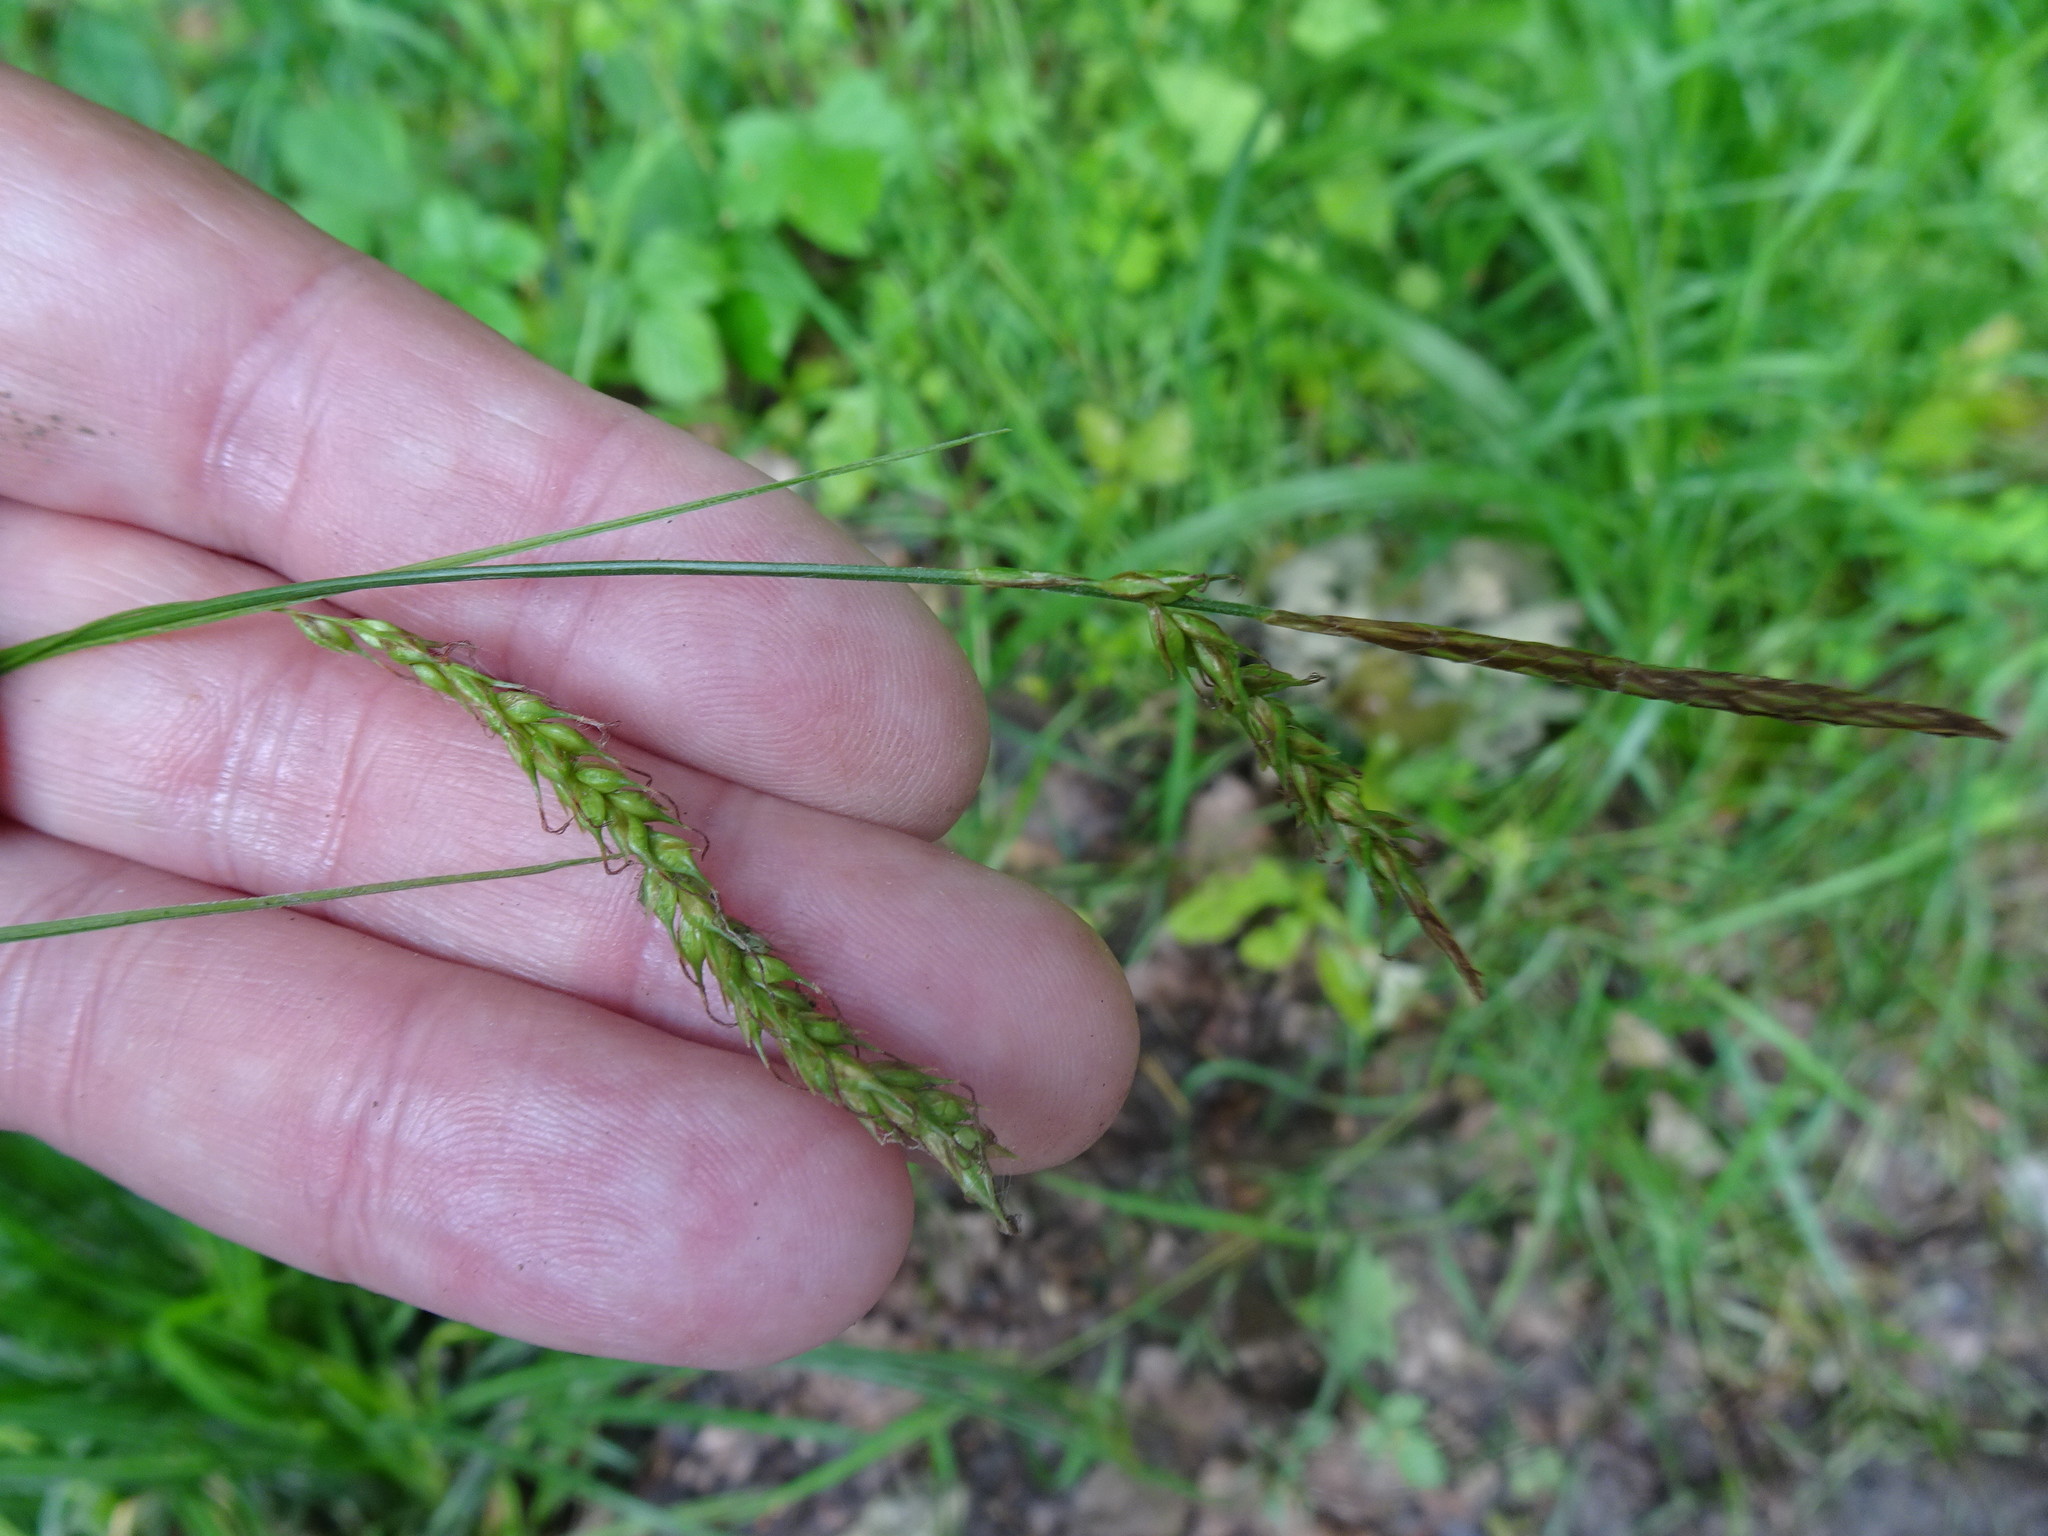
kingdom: Plantae
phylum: Tracheophyta
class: Liliopsida
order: Poales
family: Cyperaceae
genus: Carex
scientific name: Carex sylvatica
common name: Wood-sedge
